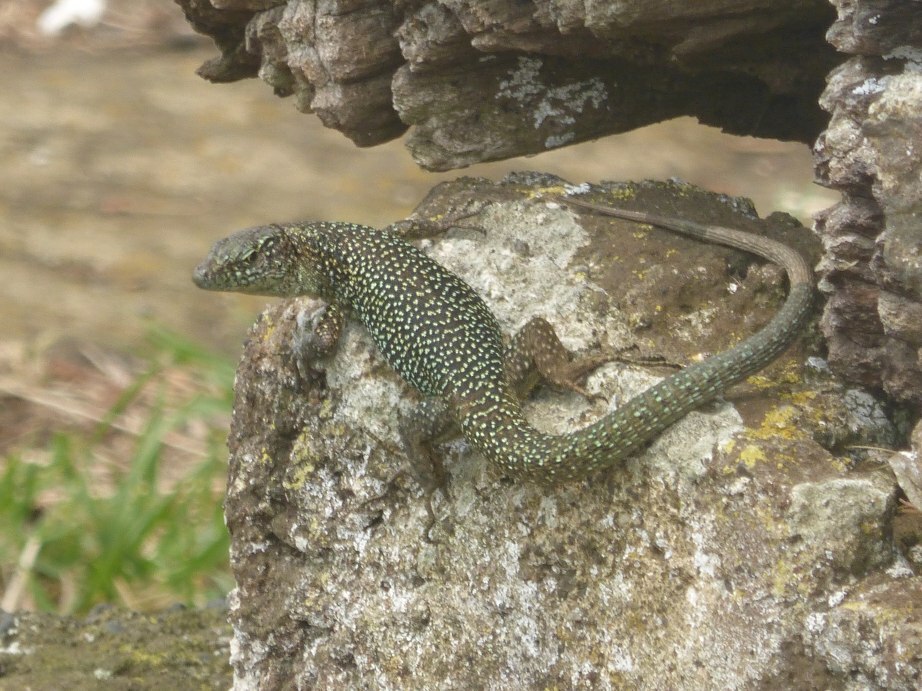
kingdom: Animalia
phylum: Chordata
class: Squamata
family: Lacertidae
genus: Teira
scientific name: Teira dugesii
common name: Madeira lizard
